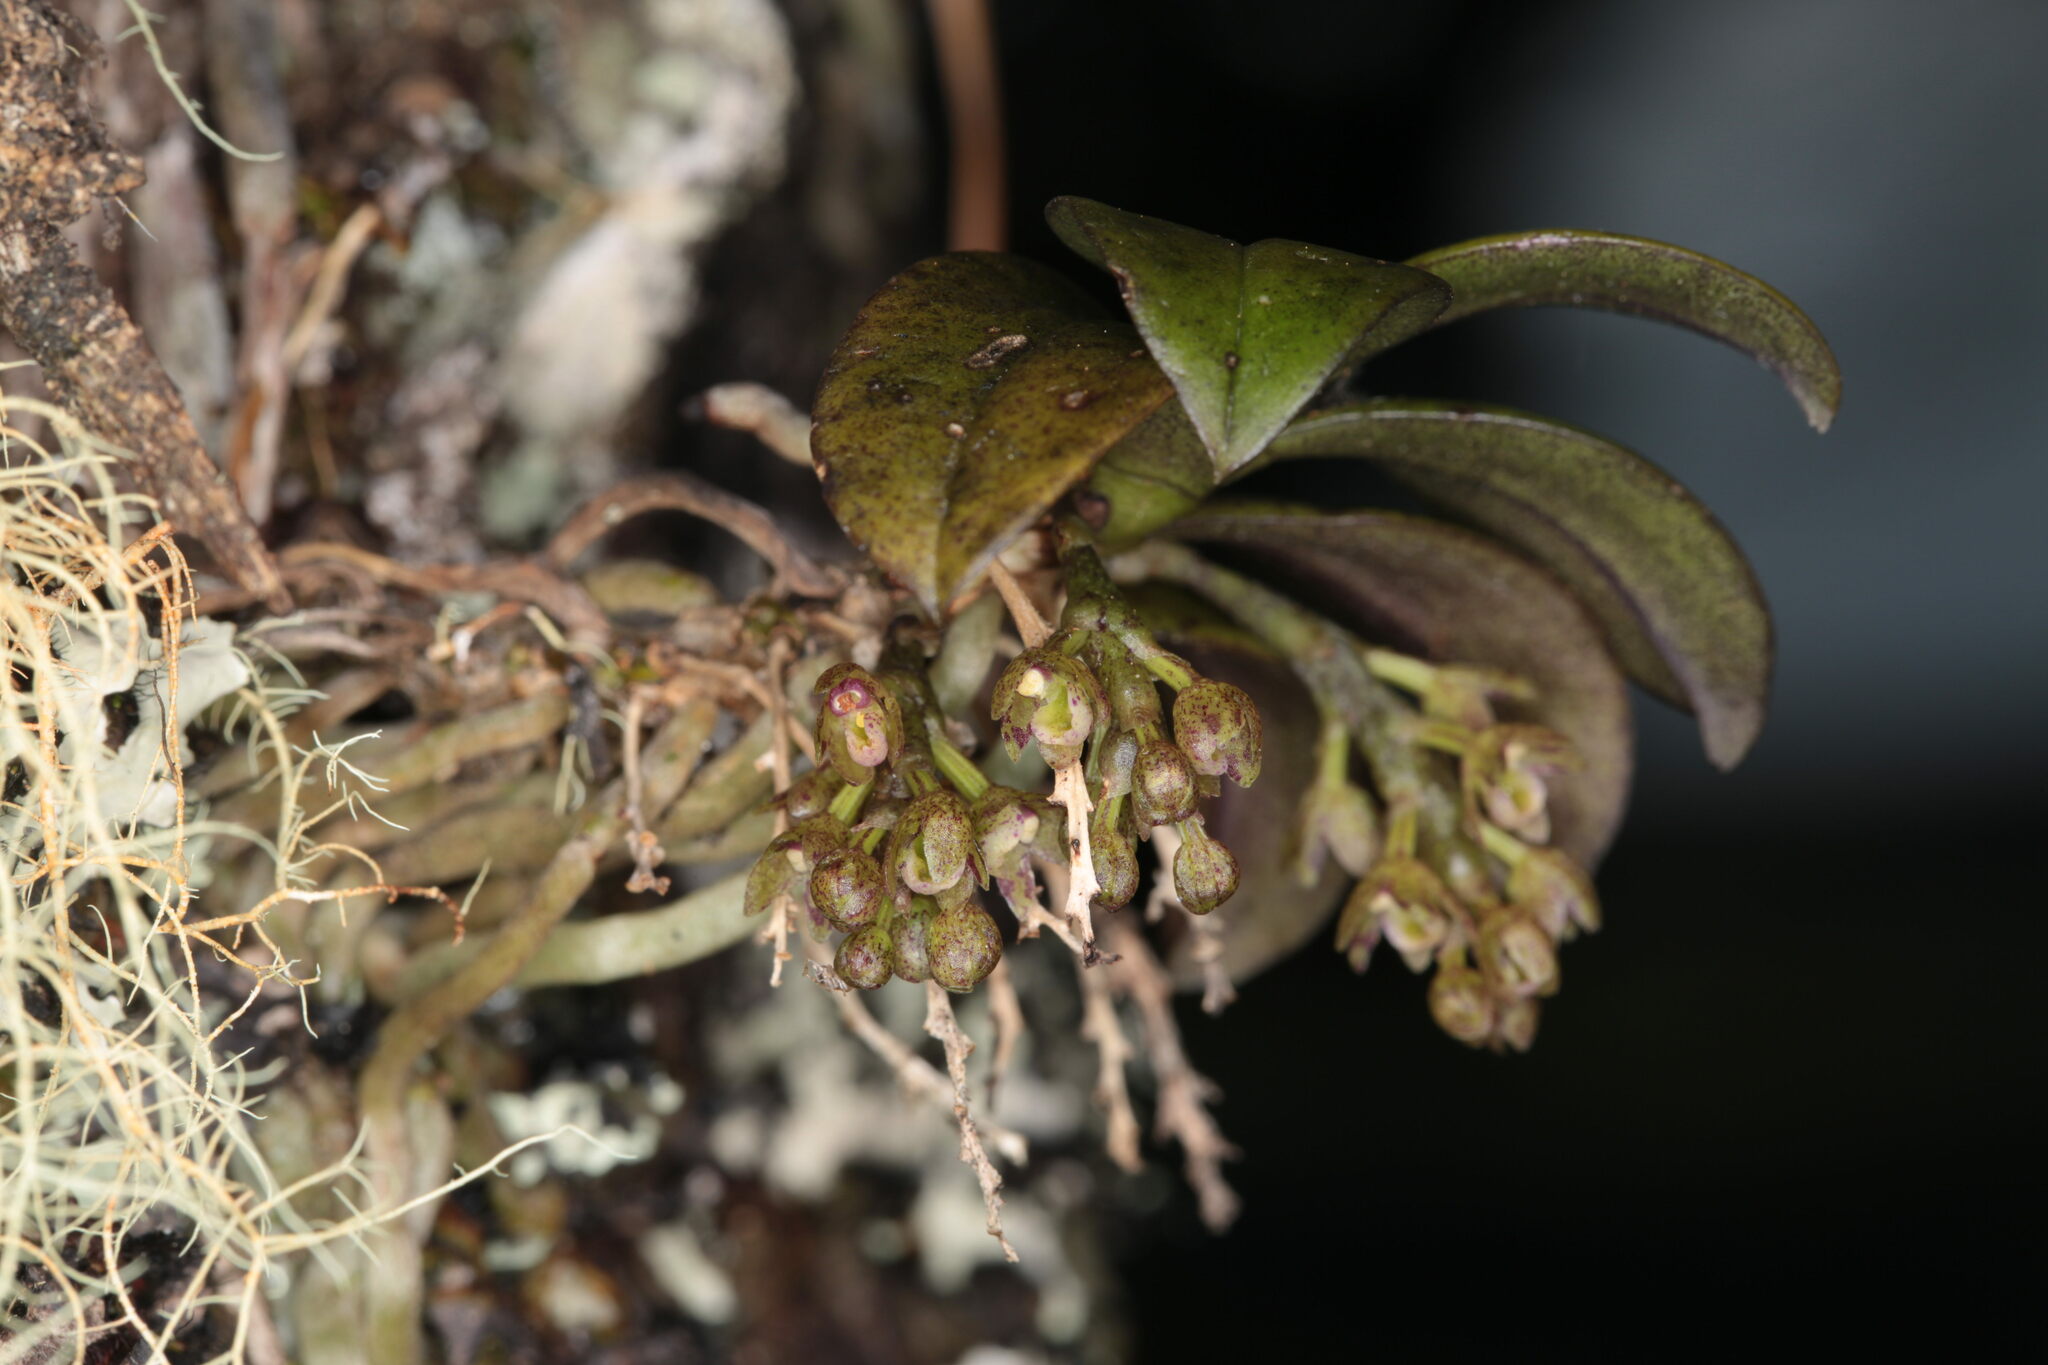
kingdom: Plantae
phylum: Tracheophyta
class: Liliopsida
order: Asparagales
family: Orchidaceae
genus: Drymoanthus
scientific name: Drymoanthus adversus
